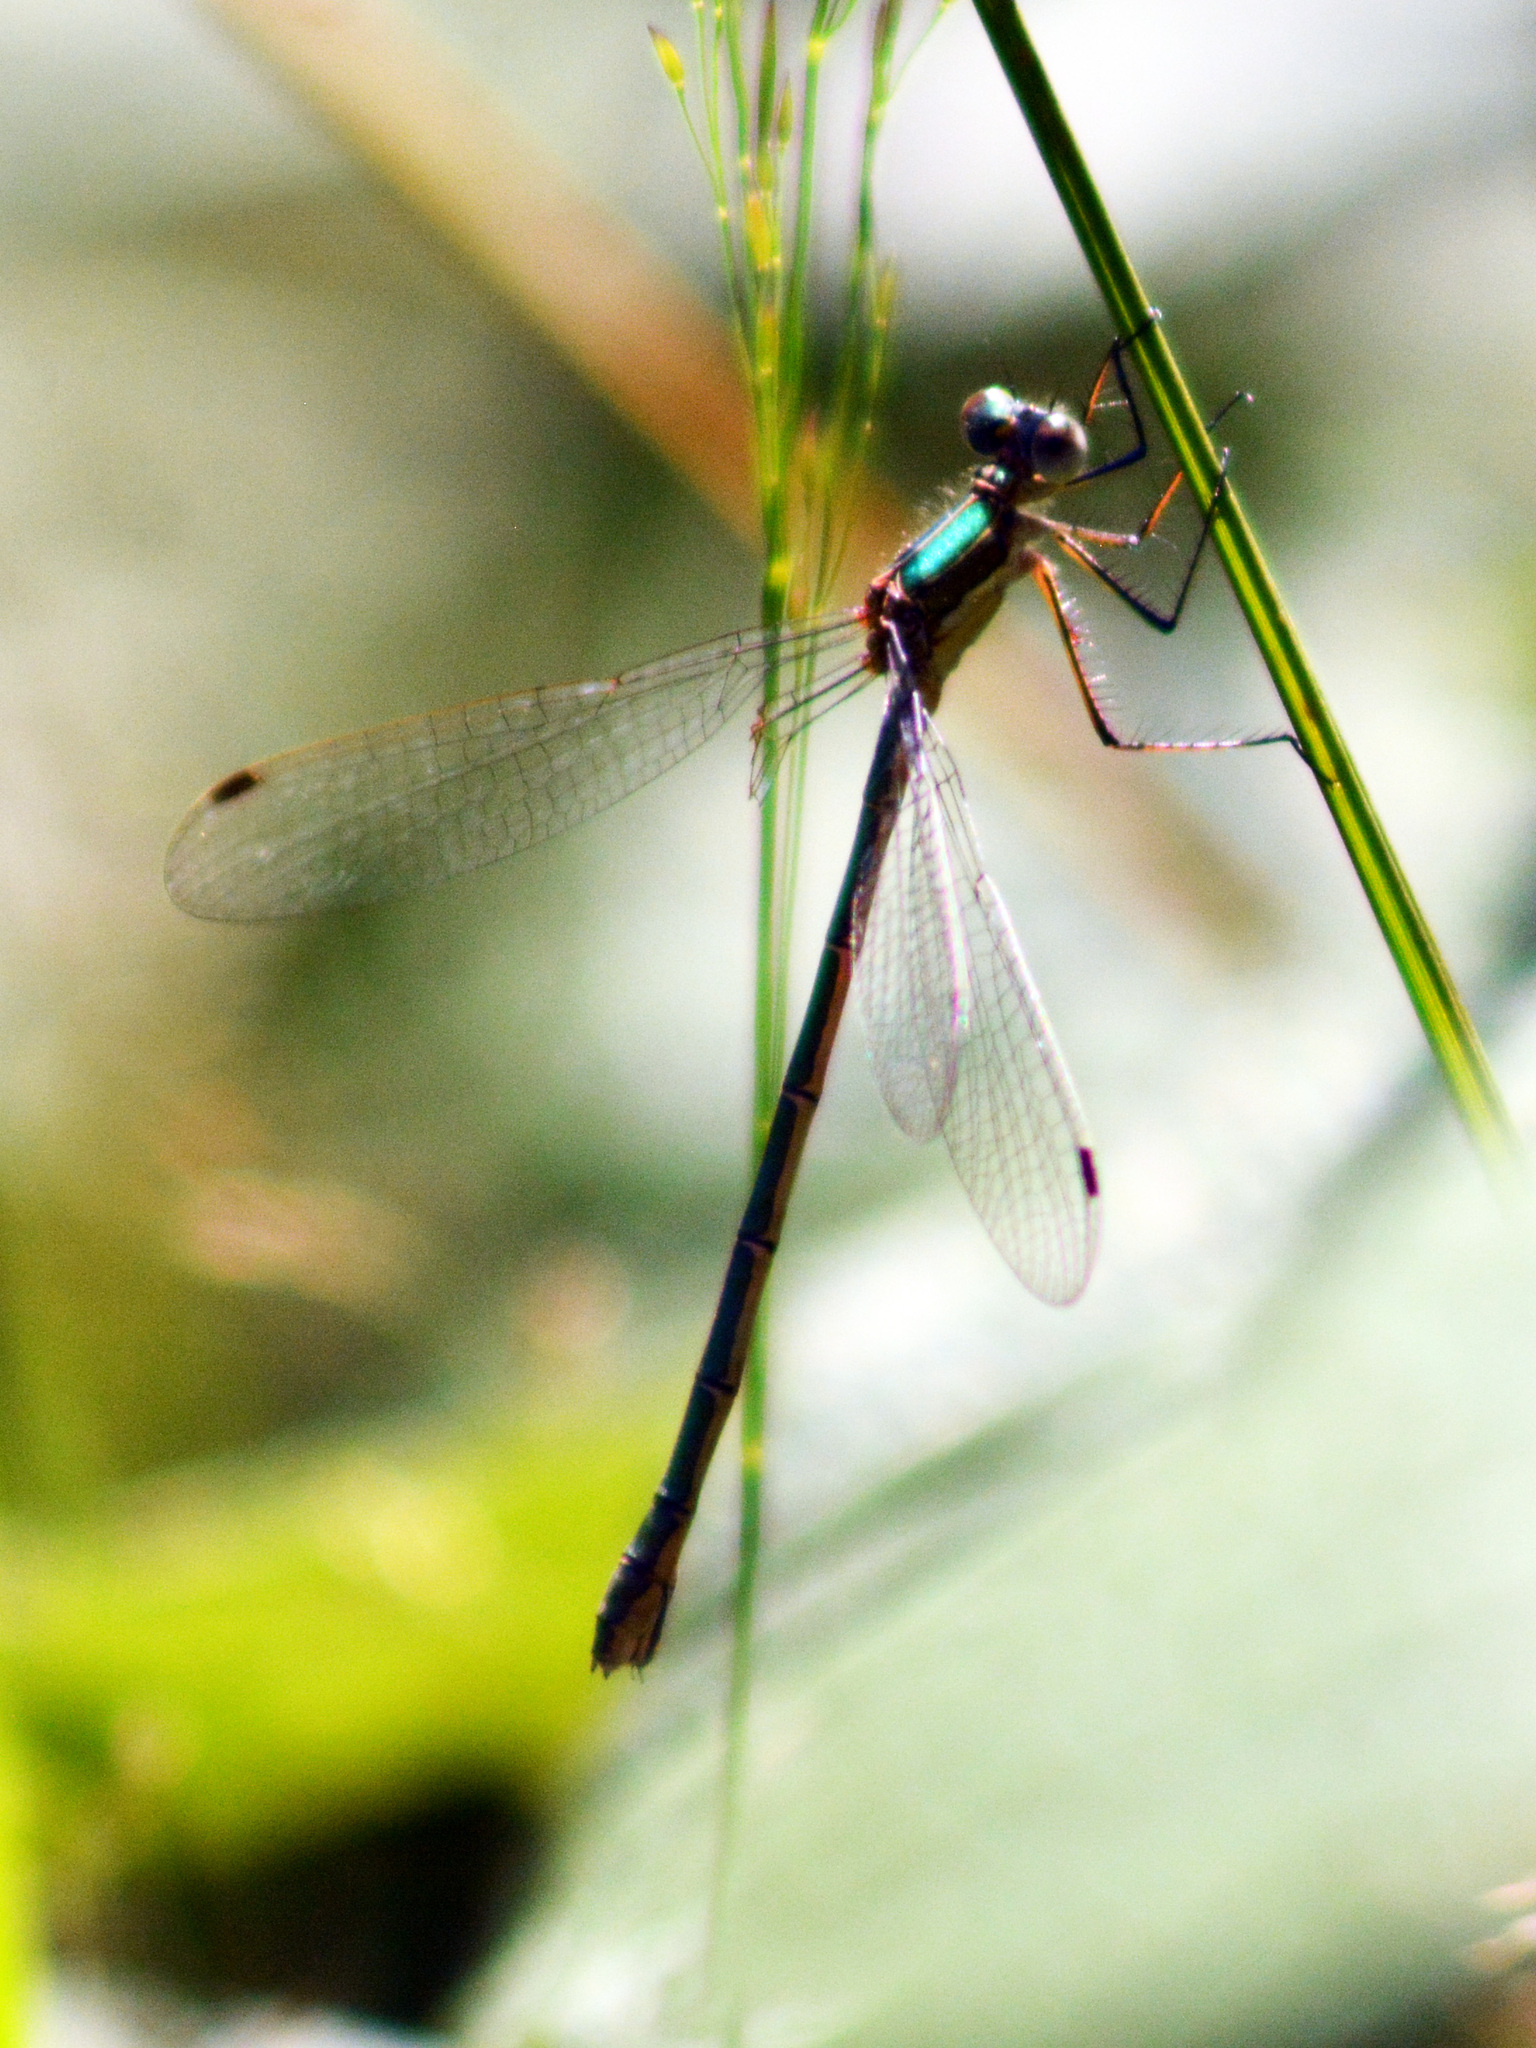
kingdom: Animalia
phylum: Arthropoda
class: Insecta
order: Odonata
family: Lestidae
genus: Lestes
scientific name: Lestes sponsa
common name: Common spreadwing
